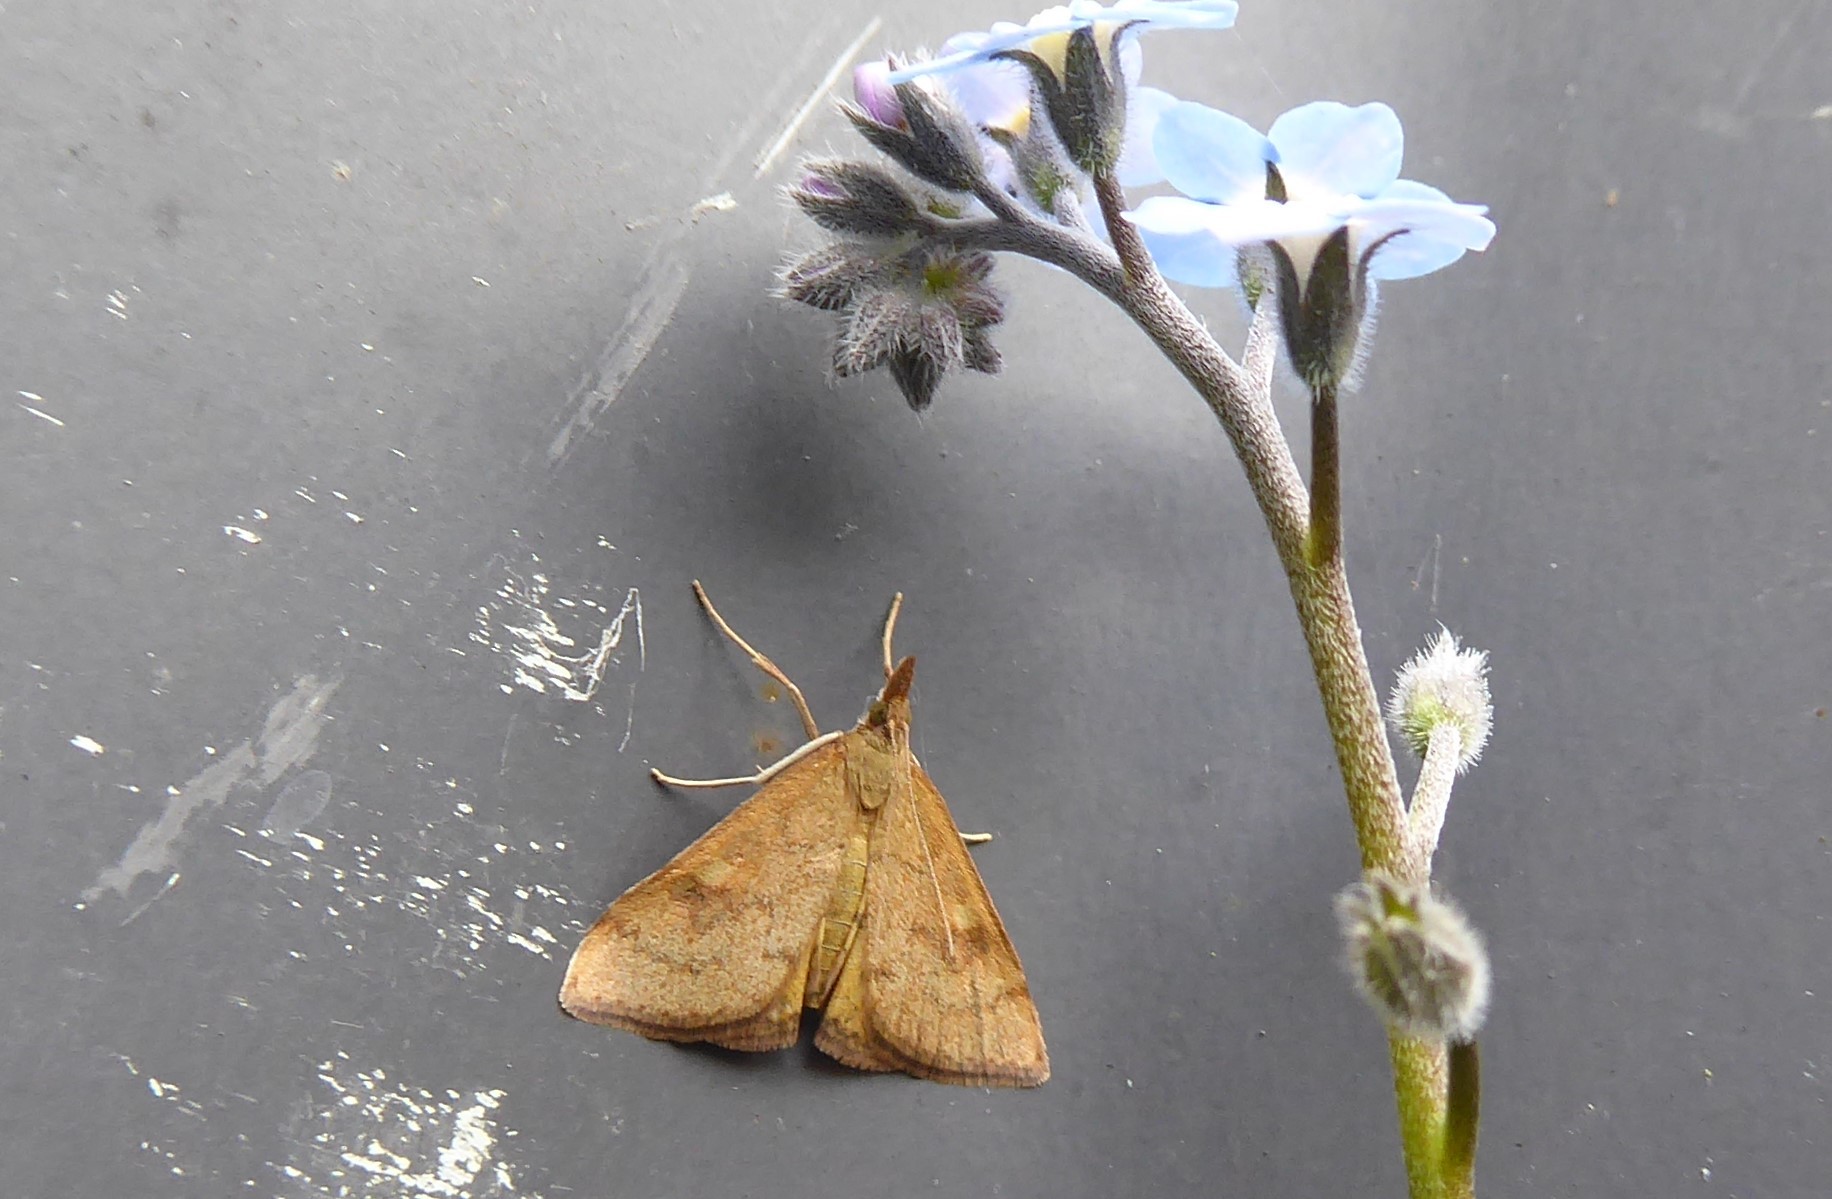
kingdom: Animalia
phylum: Arthropoda
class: Insecta
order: Lepidoptera
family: Crambidae
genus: Udea
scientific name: Udea Mnesictena flavidalis
